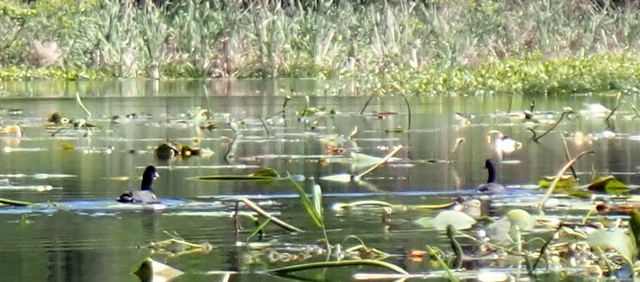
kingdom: Animalia
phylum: Chordata
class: Aves
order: Gruiformes
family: Rallidae
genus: Fulica
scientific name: Fulica americana
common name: American coot
